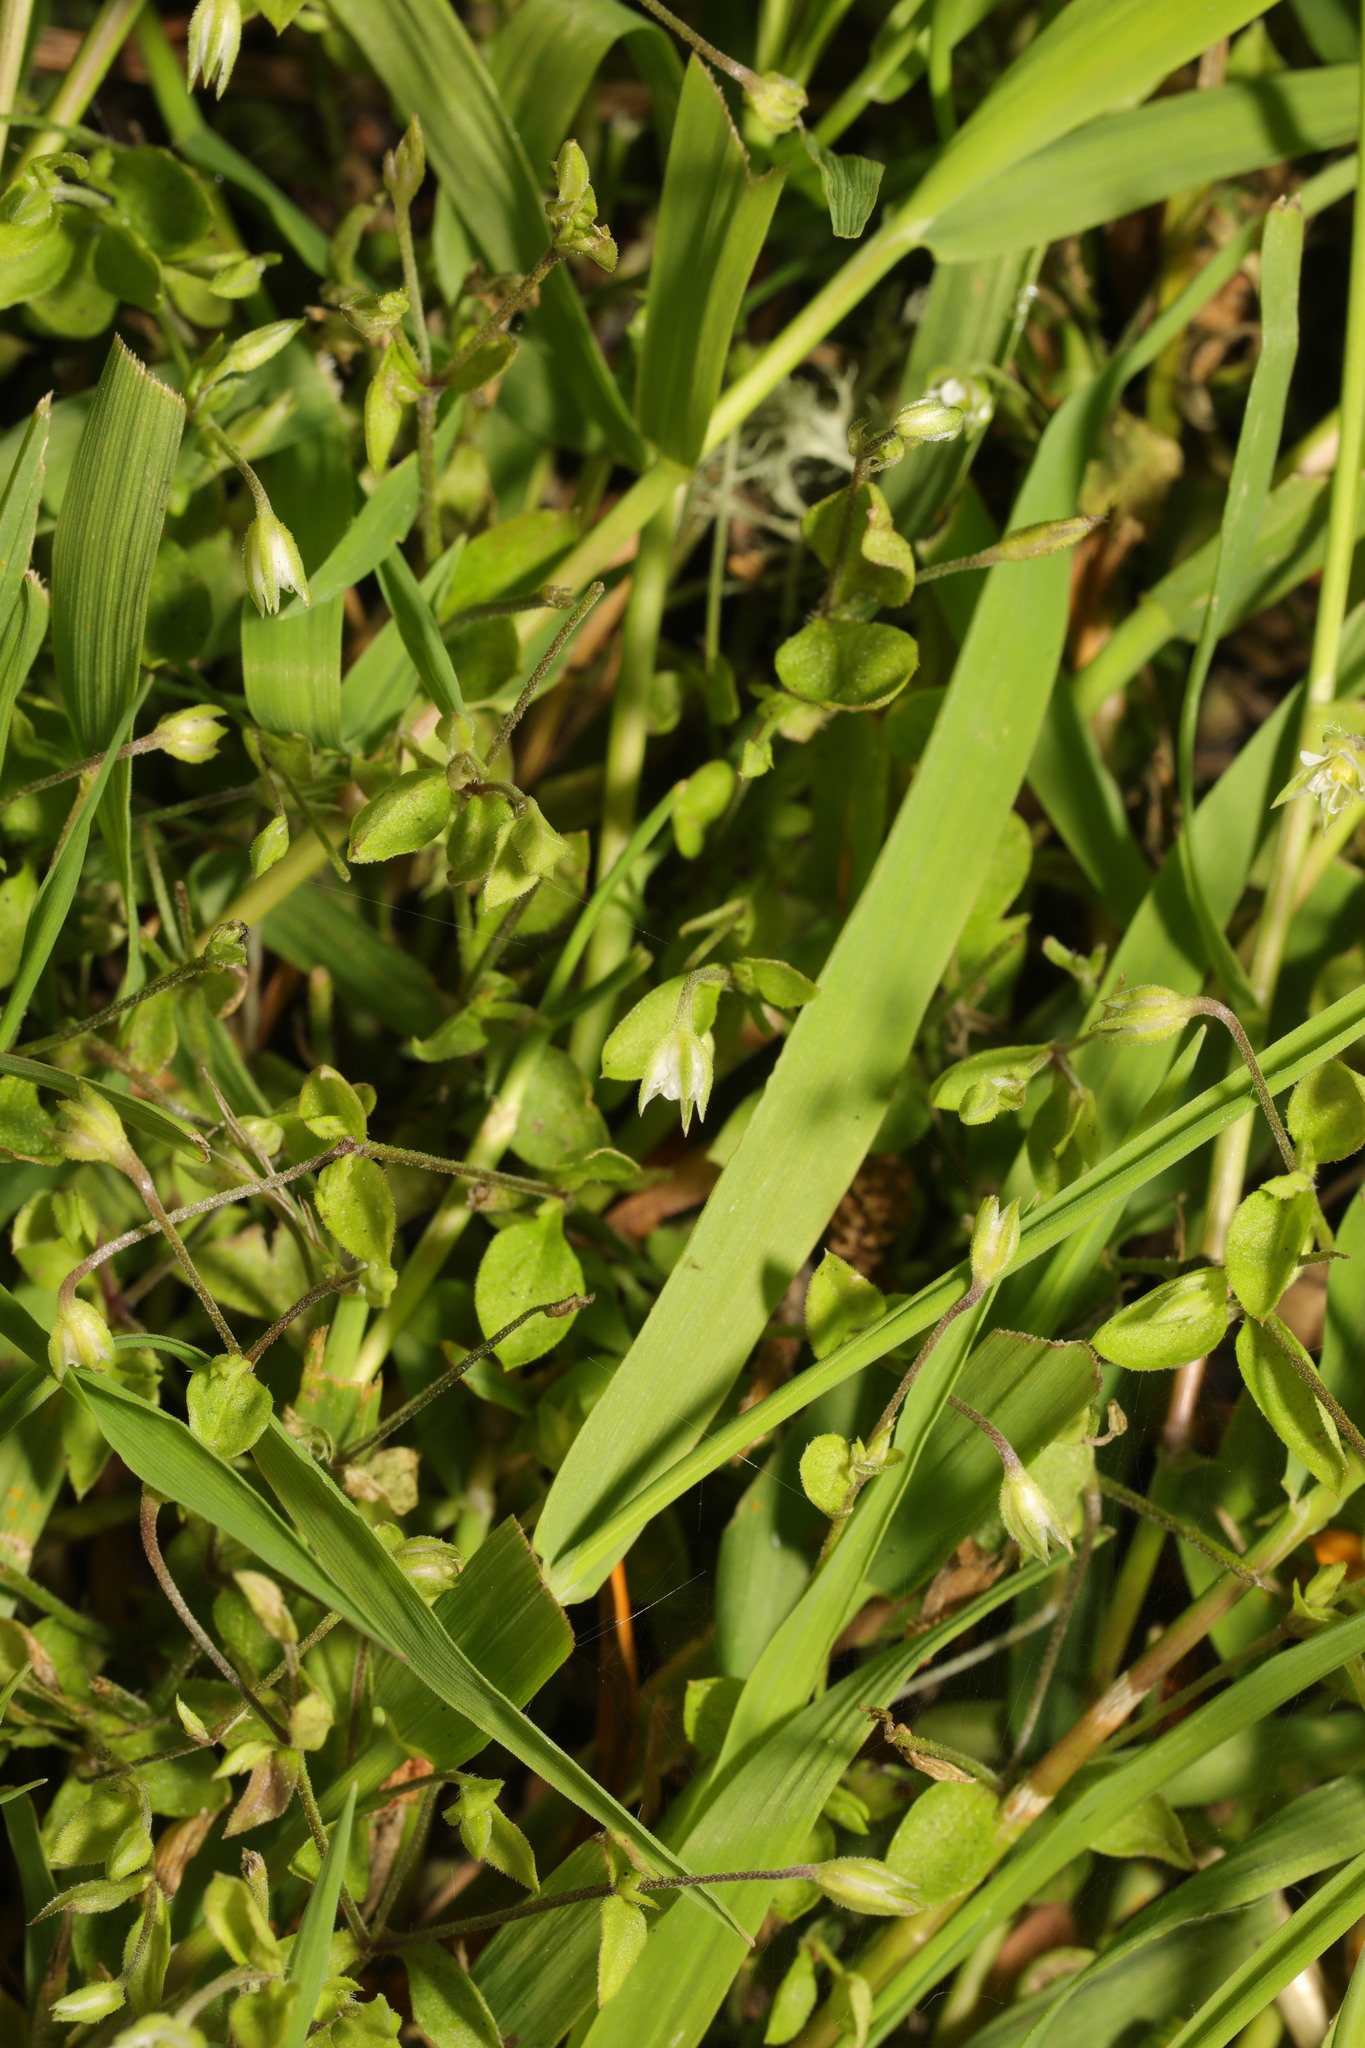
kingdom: Plantae
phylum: Tracheophyta
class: Magnoliopsida
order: Caryophyllales
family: Caryophyllaceae
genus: Stellaria
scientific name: Stellaria media
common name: Common chickweed
